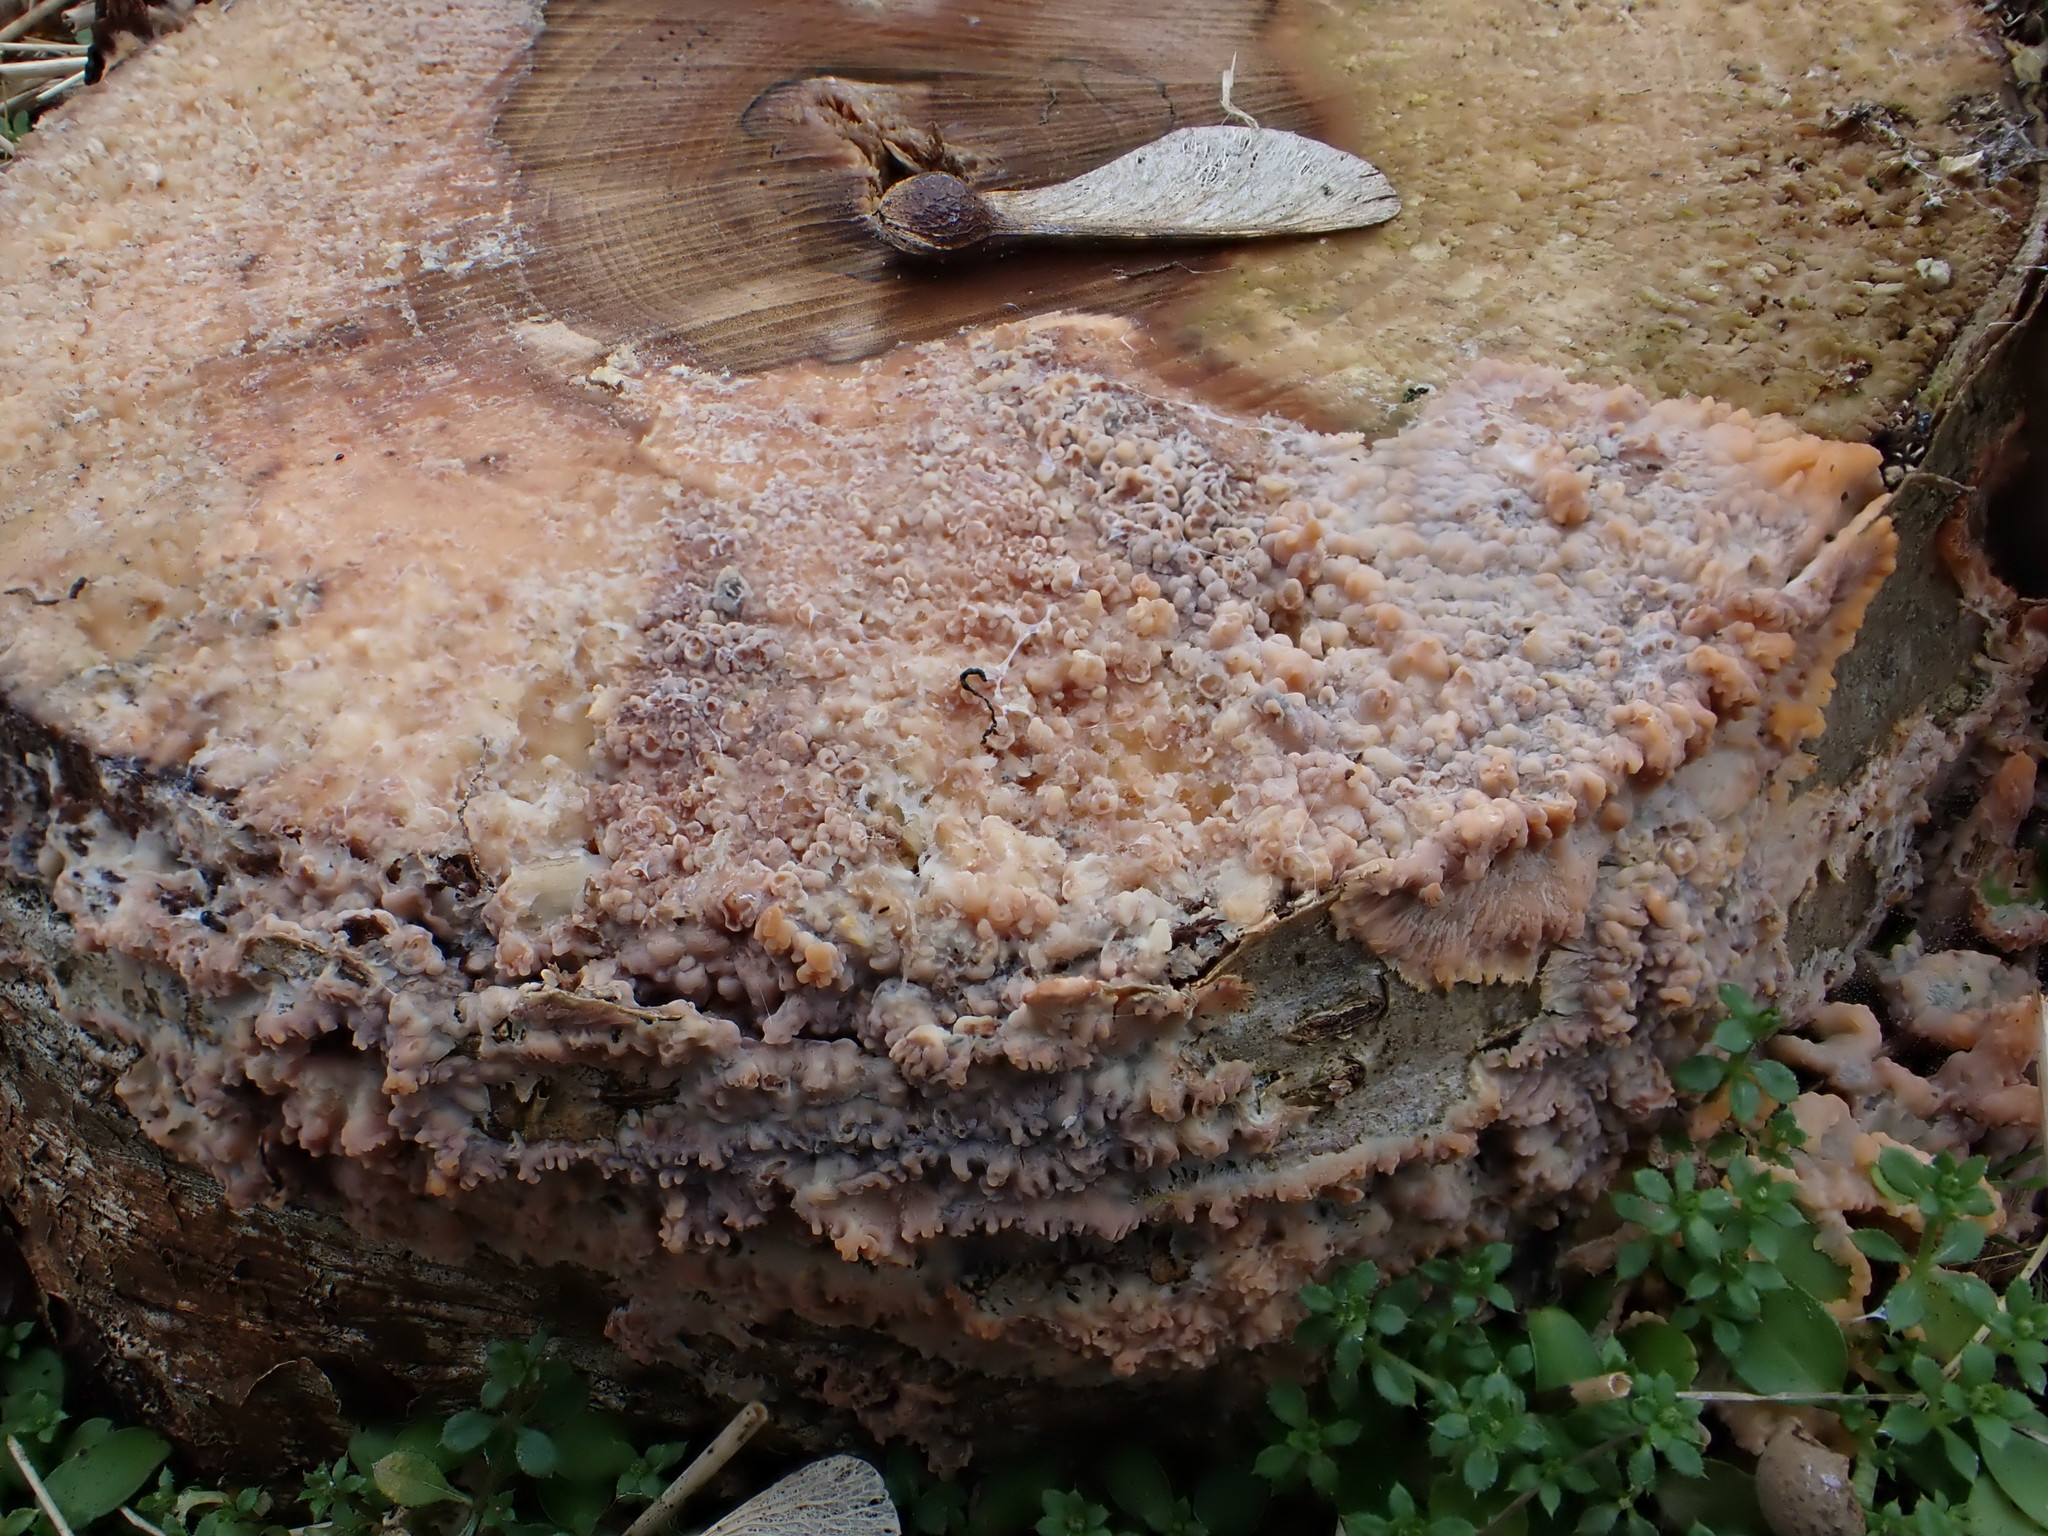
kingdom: Fungi
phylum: Basidiomycota
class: Agaricomycetes
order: Polyporales
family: Meruliaceae
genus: Phlebia
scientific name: Phlebia radiata
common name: Wrinkled crust
